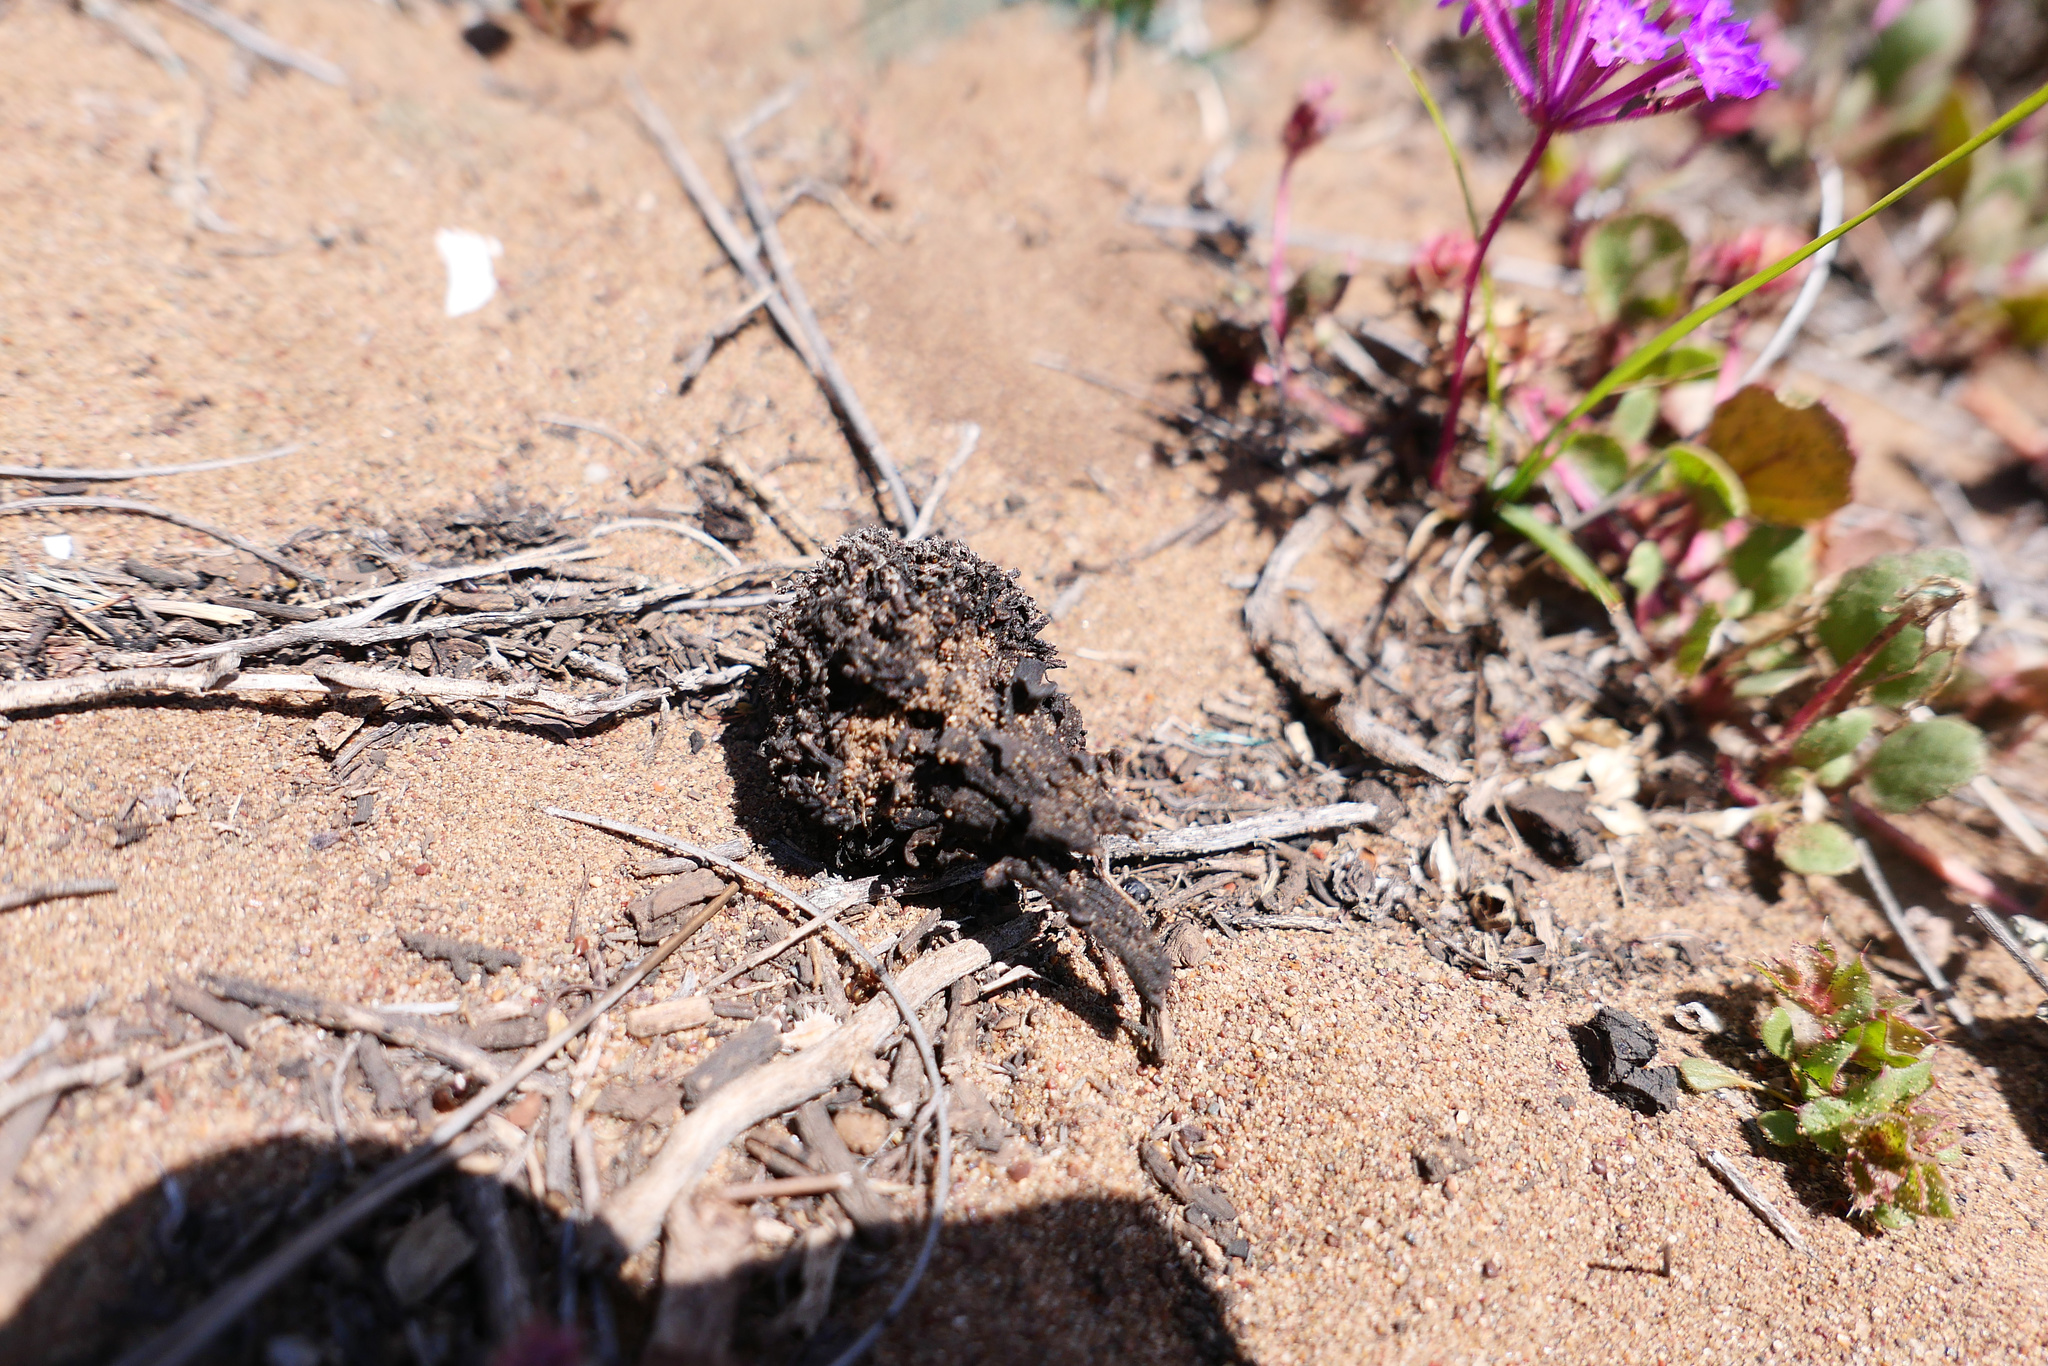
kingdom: Plantae
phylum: Tracheophyta
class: Magnoliopsida
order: Boraginales
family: Lennoaceae
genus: Pholisma
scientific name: Pholisma arenarium
